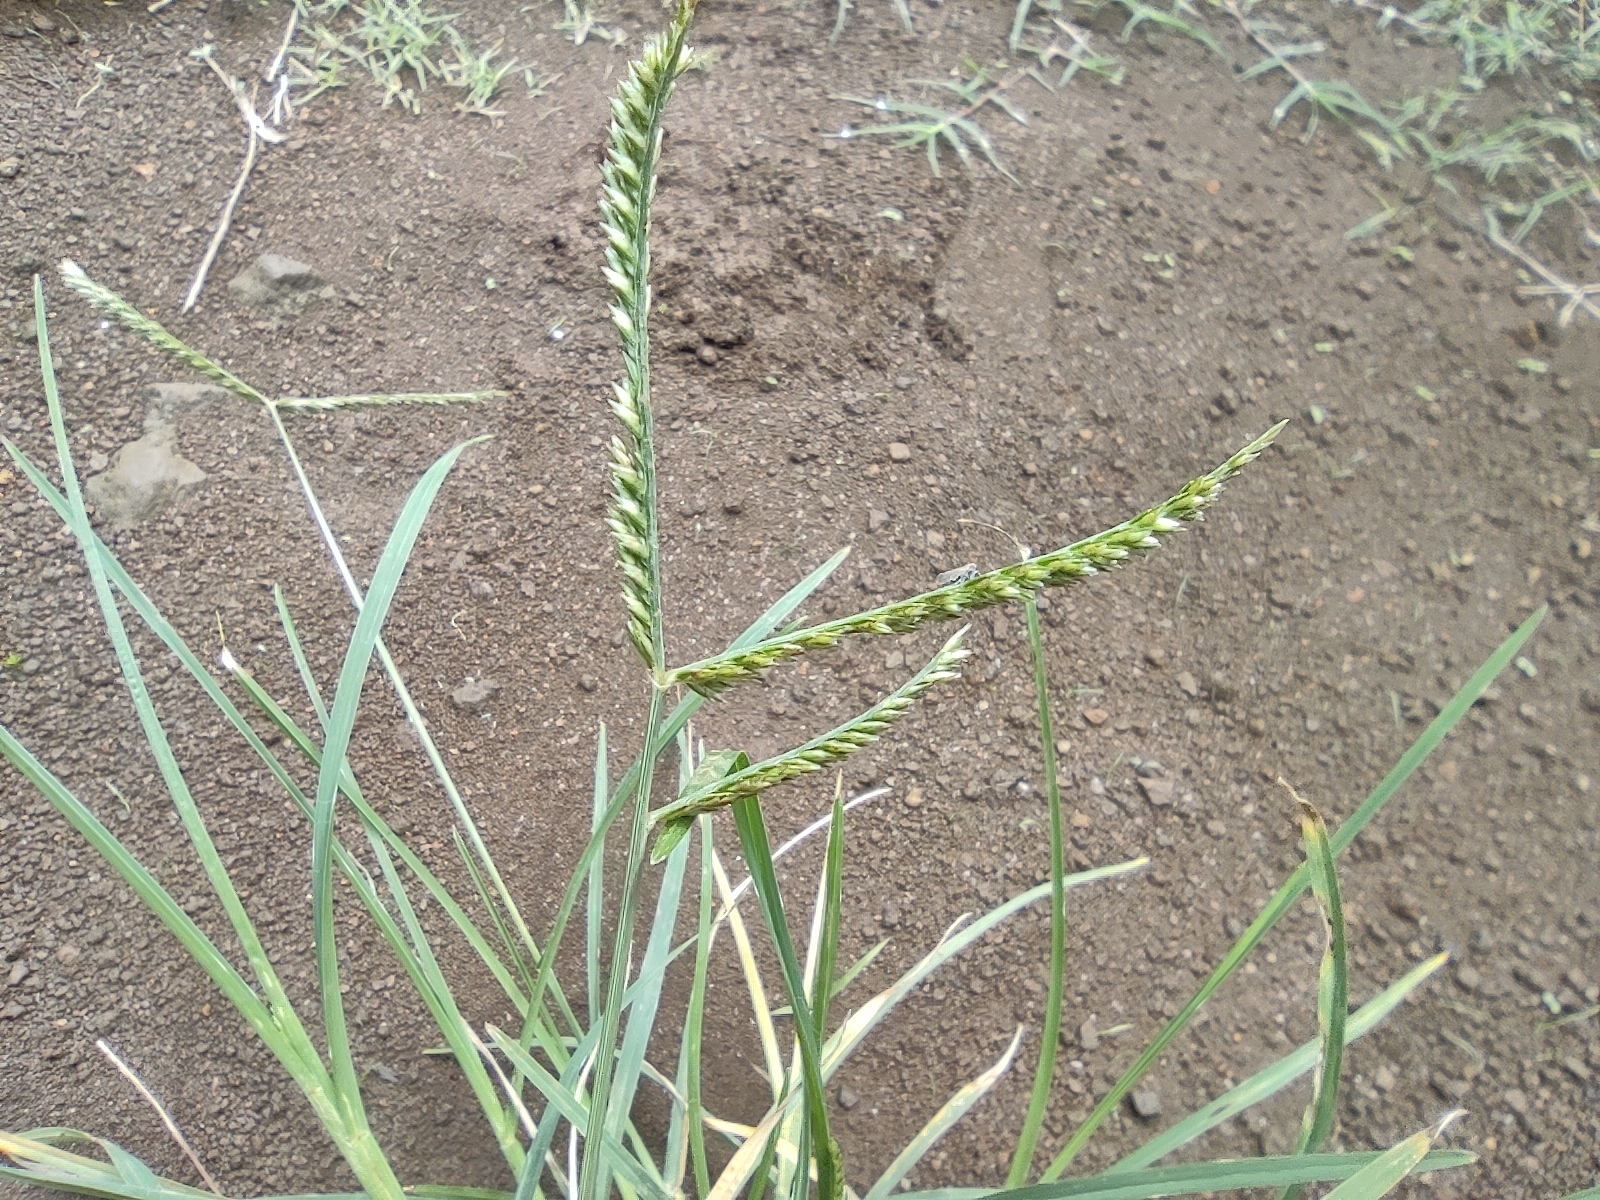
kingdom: Plantae
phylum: Tracheophyta
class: Liliopsida
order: Poales
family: Poaceae
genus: Eleusine
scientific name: Eleusine indica
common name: Yard-grass
